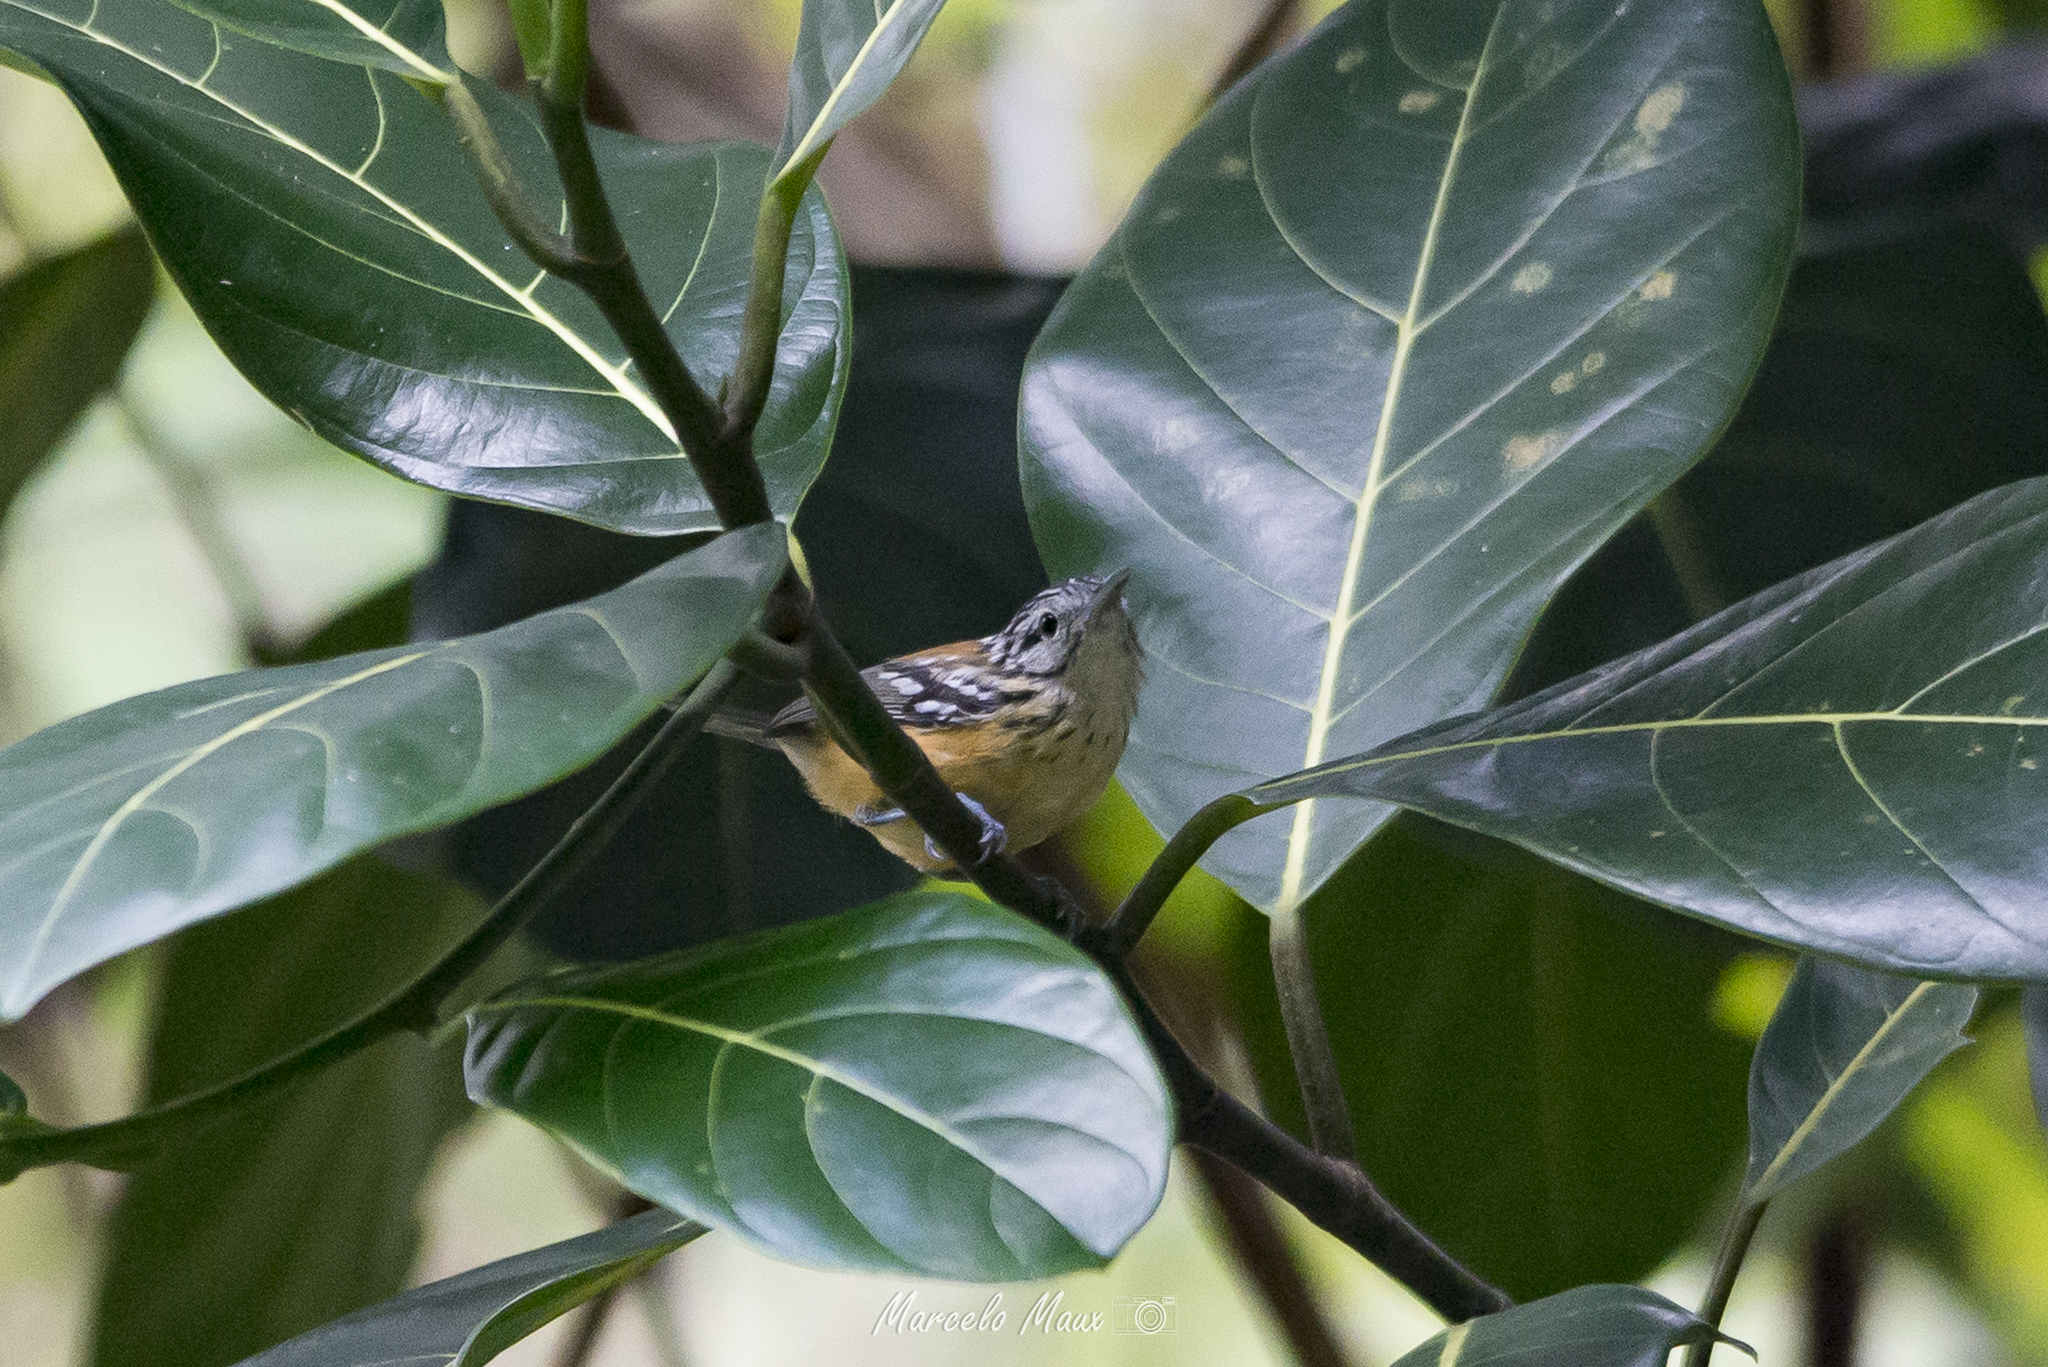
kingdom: Animalia
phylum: Chordata
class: Aves
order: Passeriformes
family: Thamnophilidae
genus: Terenura
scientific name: Terenura sicki
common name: Orange-bellied antwren
